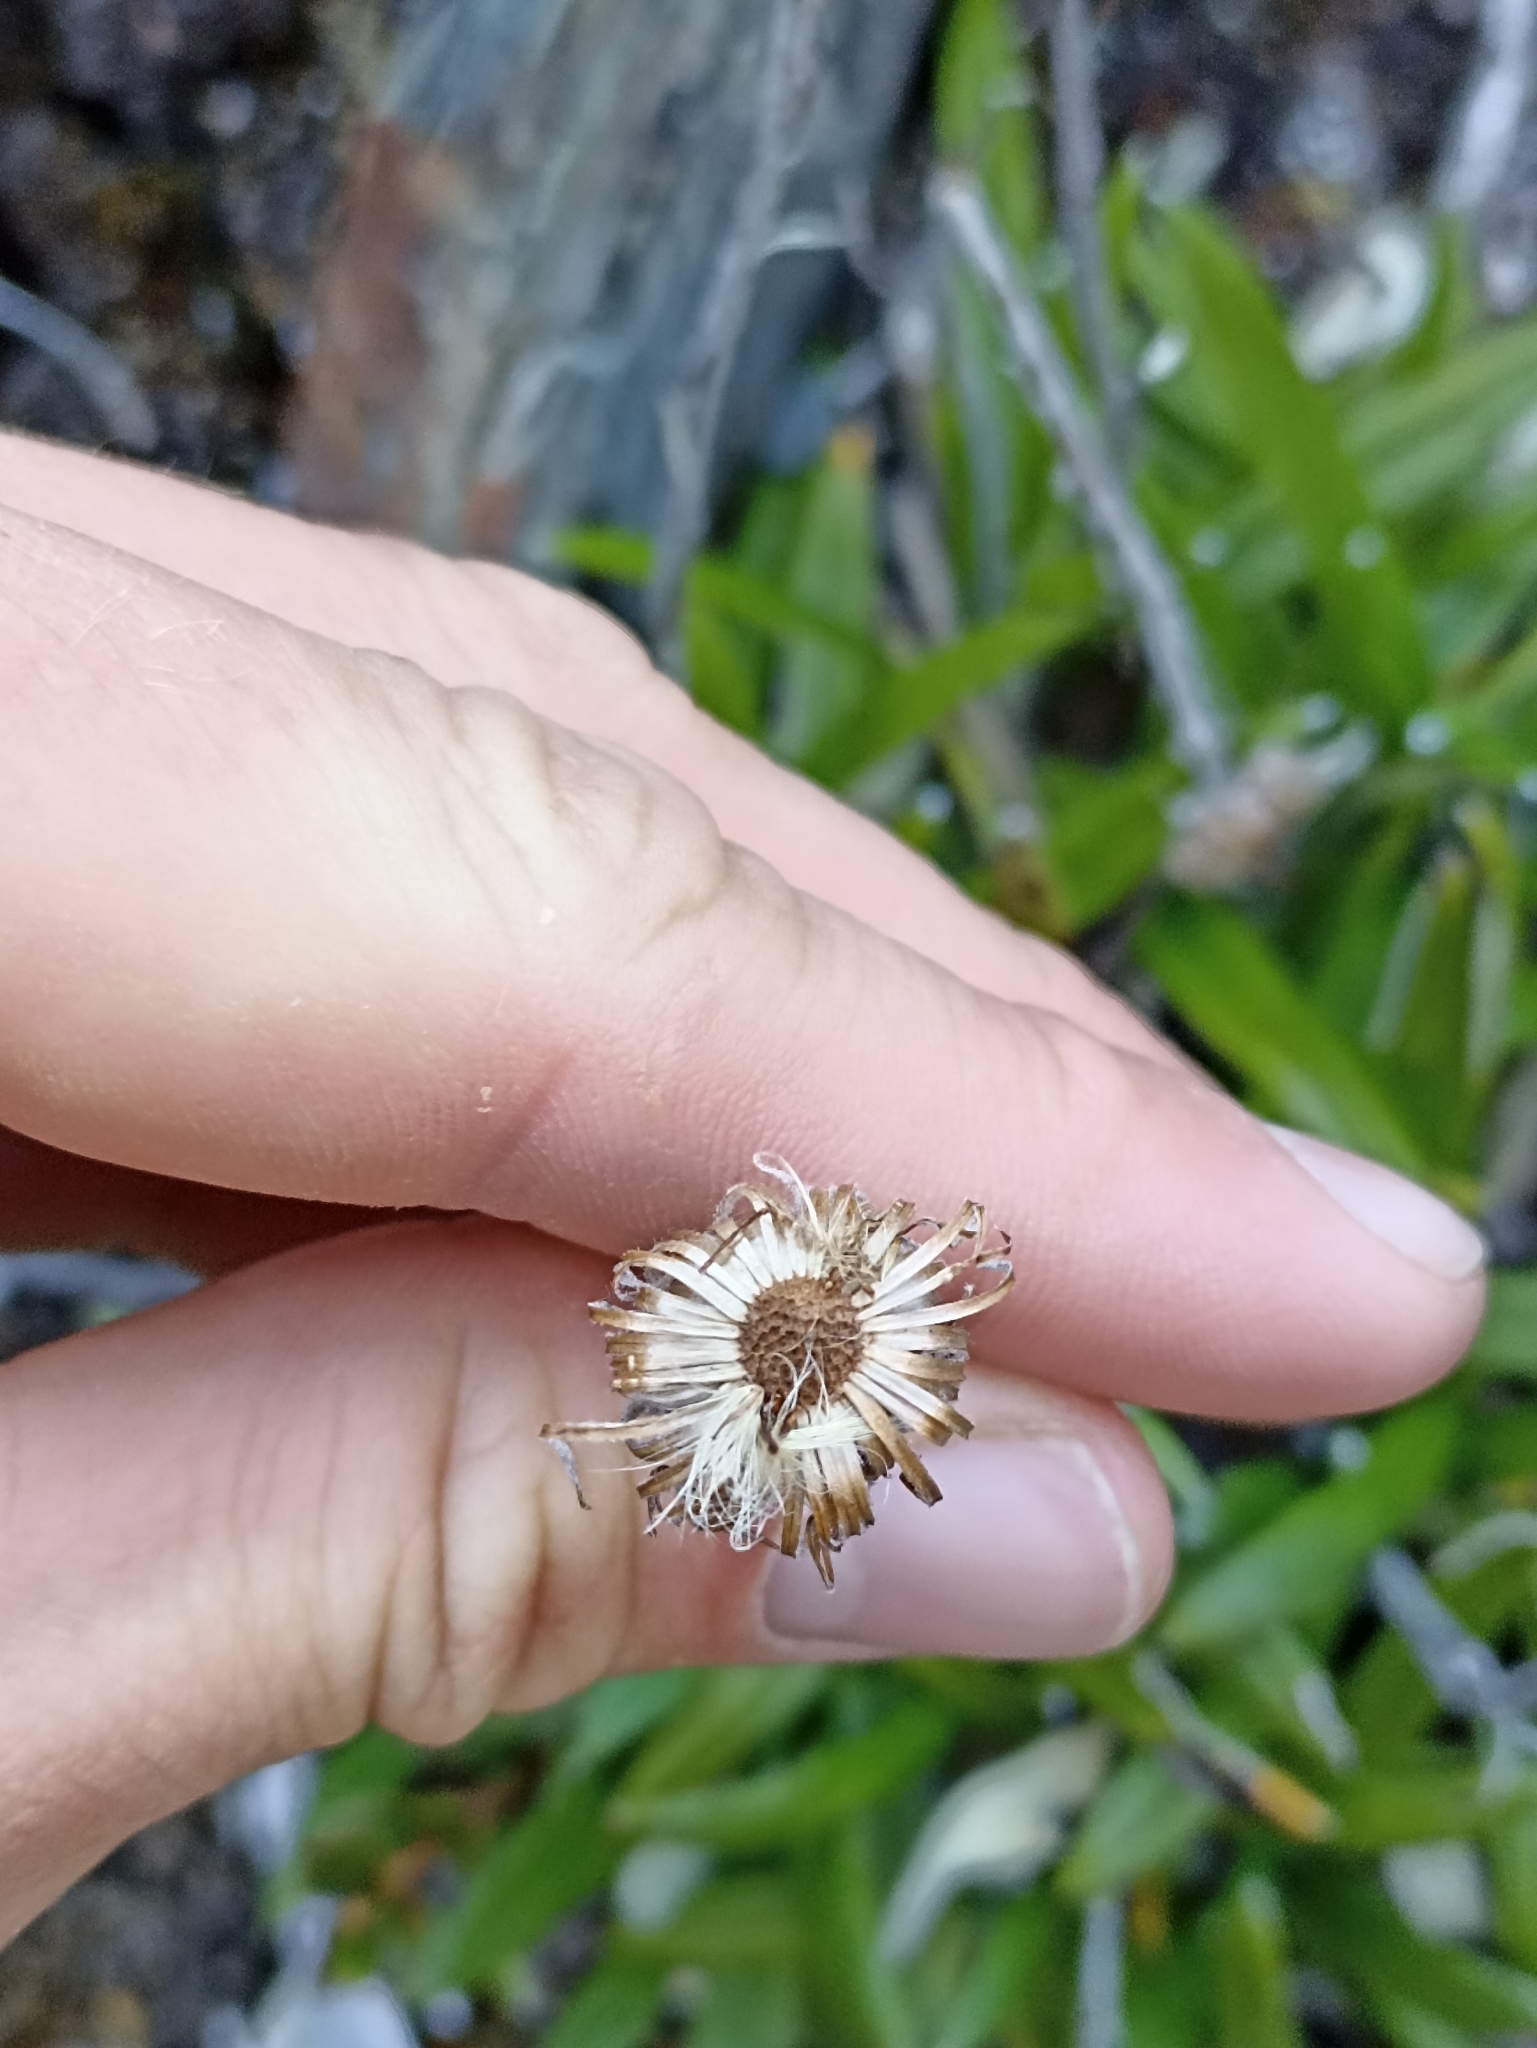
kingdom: Plantae
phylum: Tracheophyta
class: Magnoliopsida
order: Asterales
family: Asteraceae
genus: Celmisia
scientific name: Celmisia spectabilis
